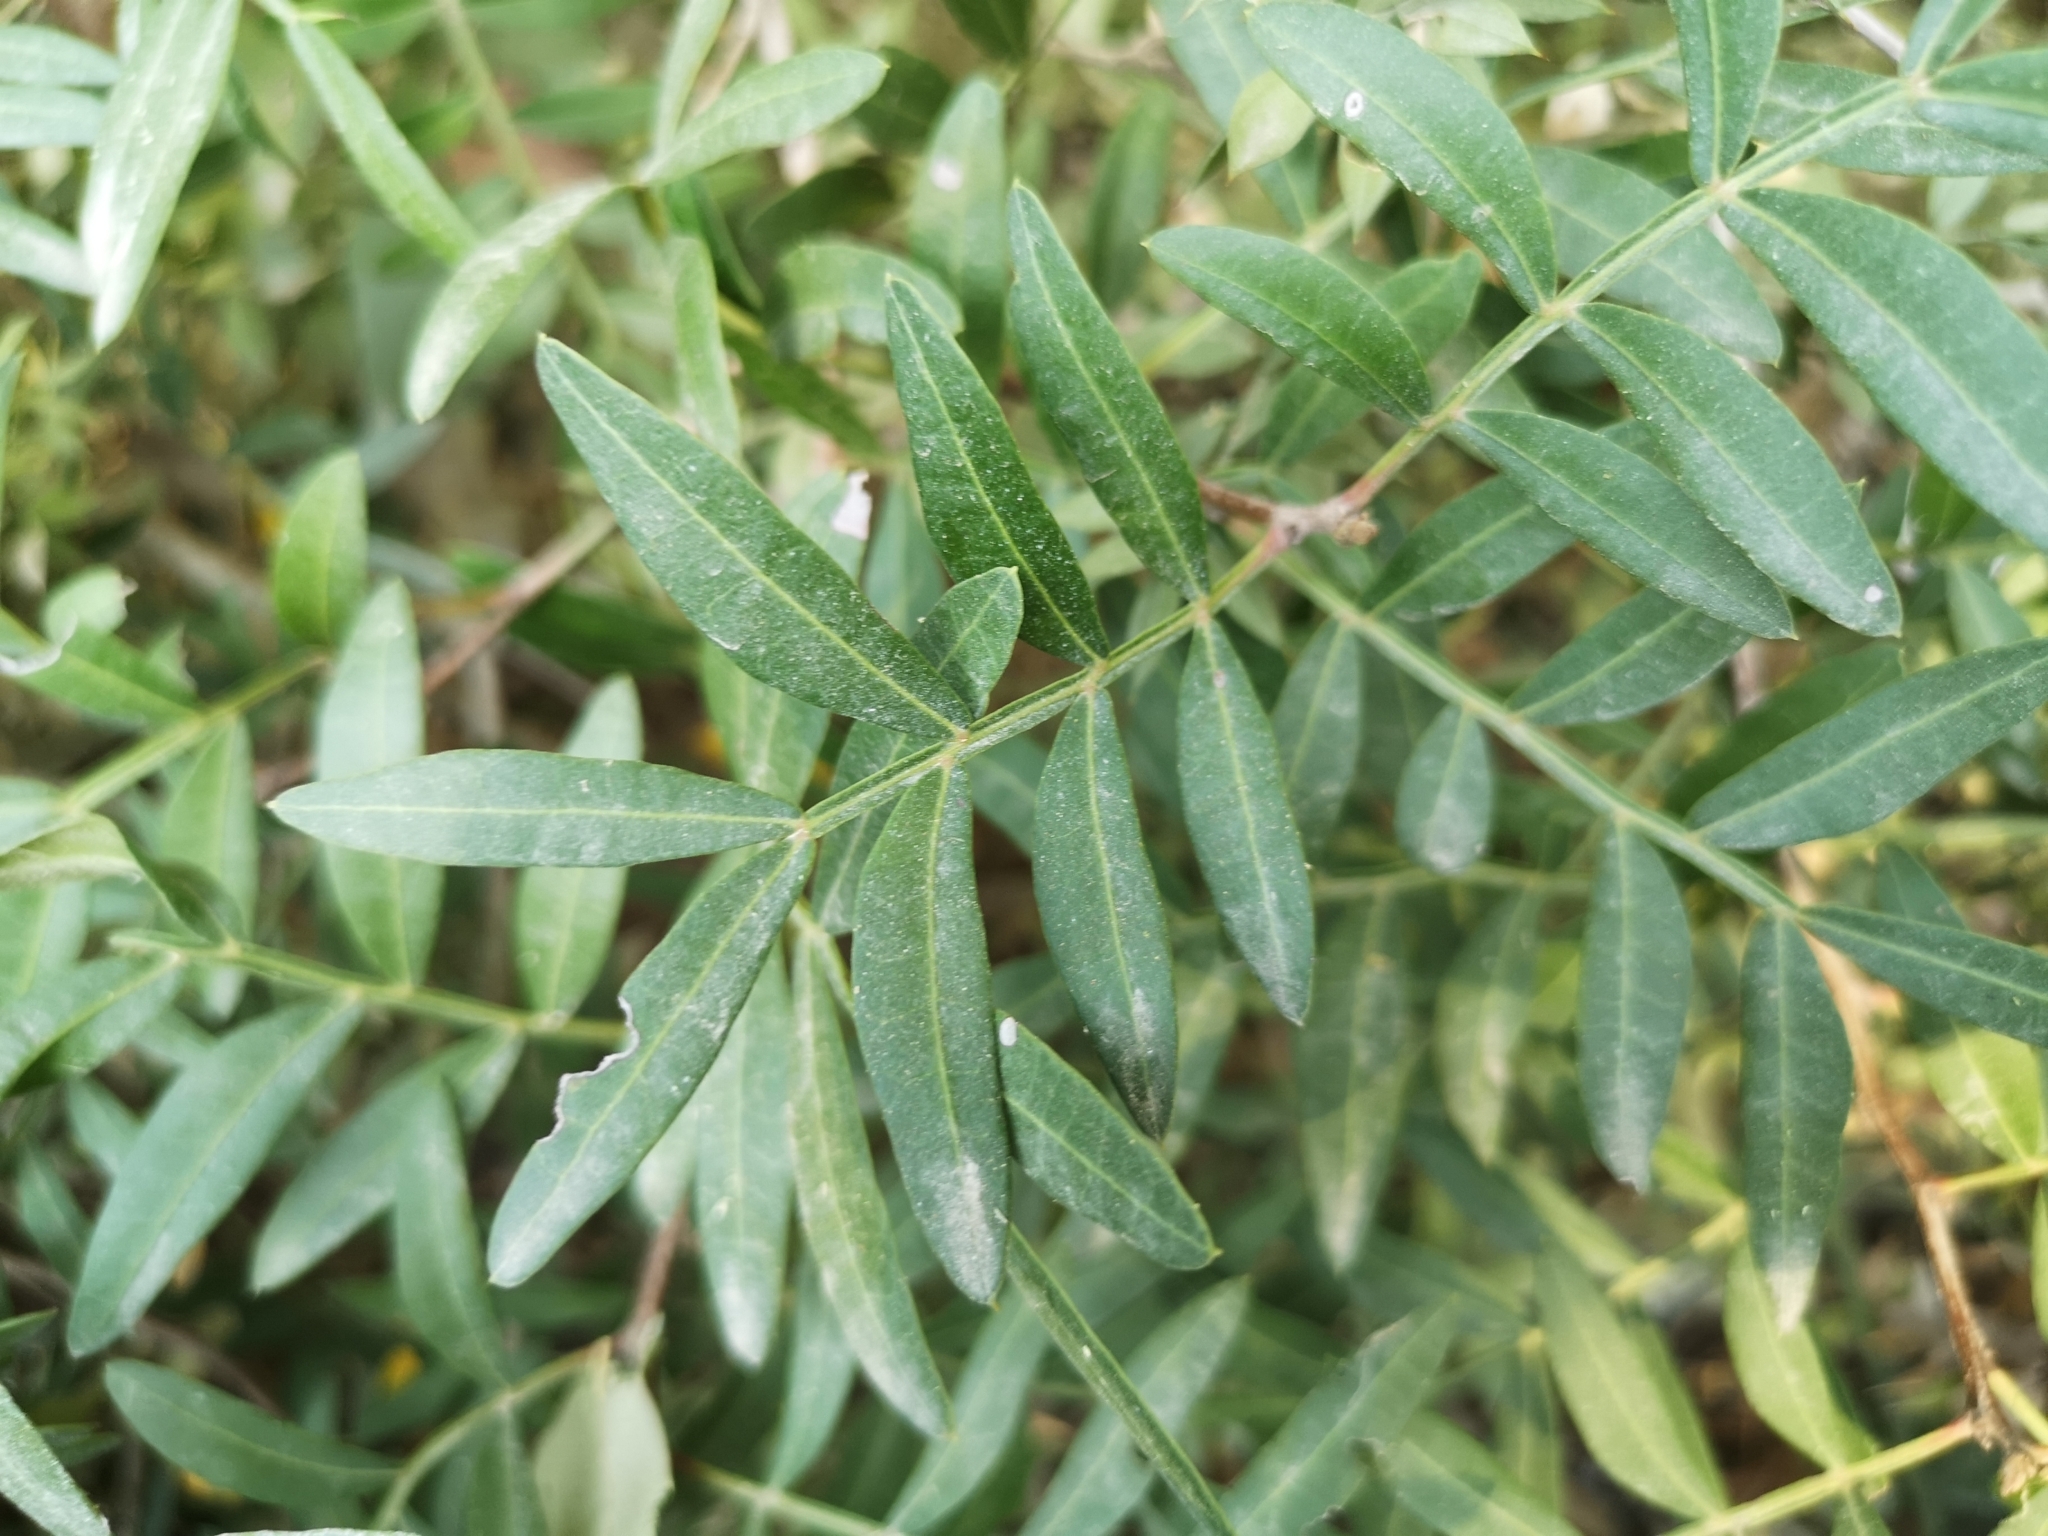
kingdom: Plantae
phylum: Tracheophyta
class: Magnoliopsida
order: Sapindales
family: Anacardiaceae
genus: Pistacia
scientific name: Pistacia lentiscus
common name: Lentisk
